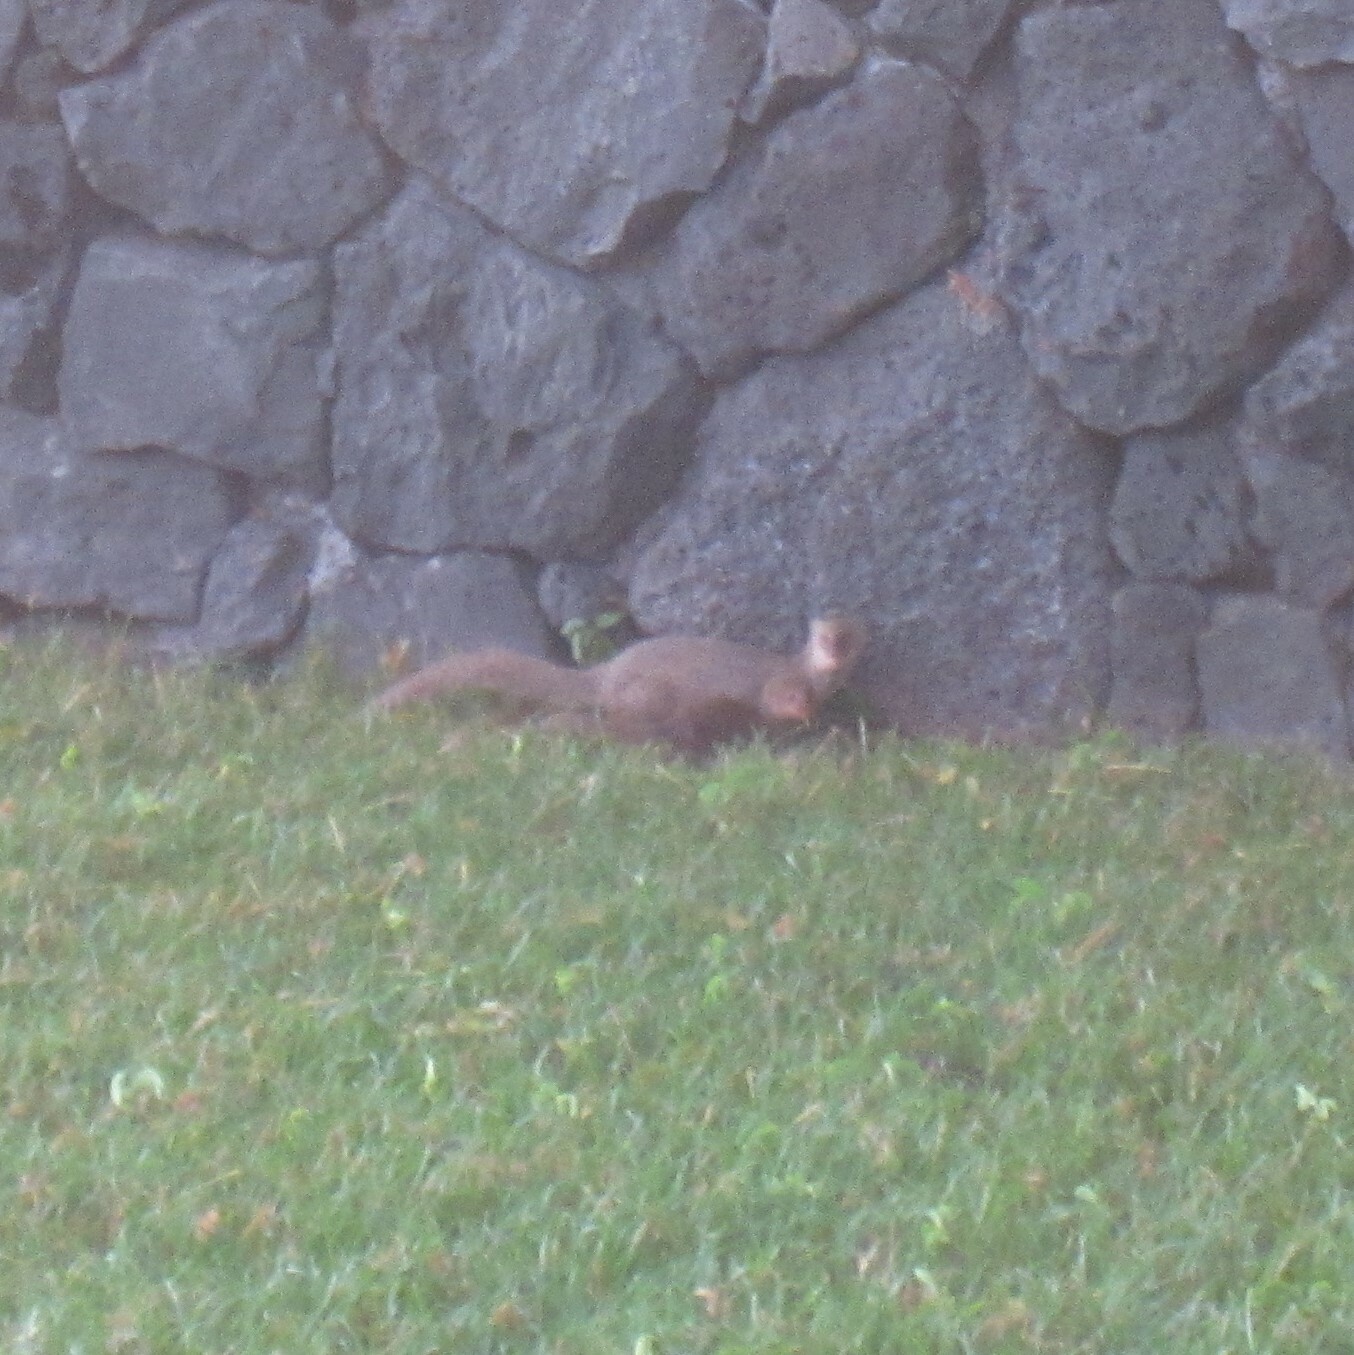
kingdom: Animalia
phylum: Chordata
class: Mammalia
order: Carnivora
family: Herpestidae
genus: Herpestes
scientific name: Herpestes javanicus
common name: Small asian mongoose
